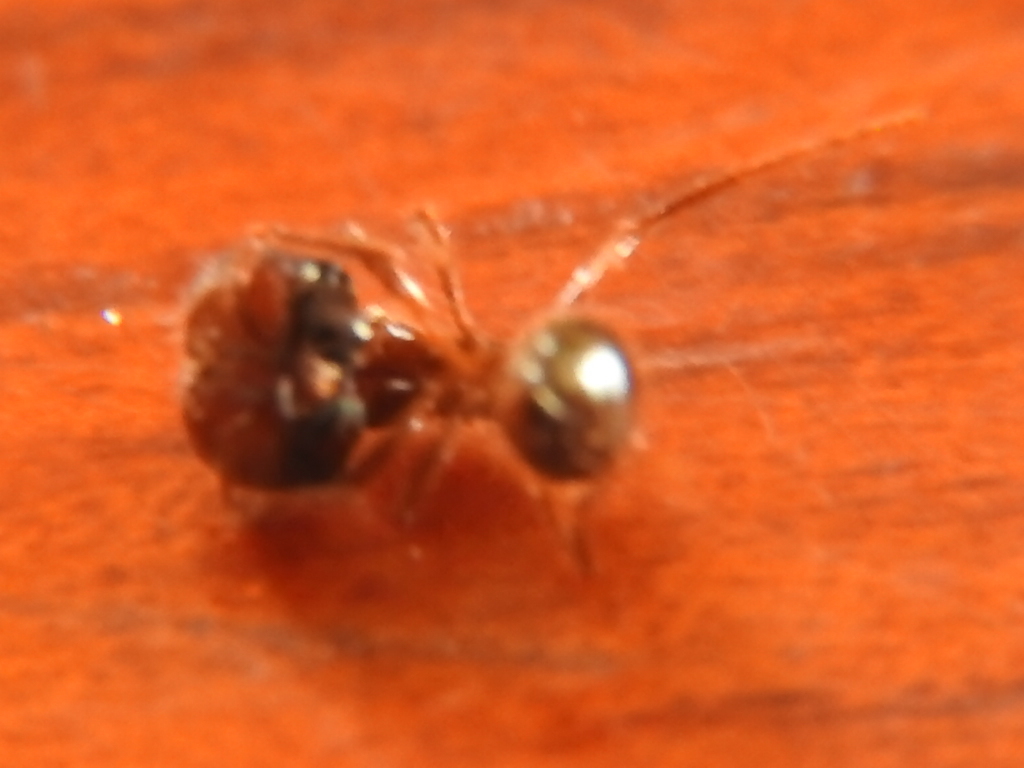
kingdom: Animalia
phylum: Arthropoda
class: Insecta
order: Hymenoptera
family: Formicidae
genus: Solenopsis
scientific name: Solenopsis geminata
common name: Tropical fire ant
